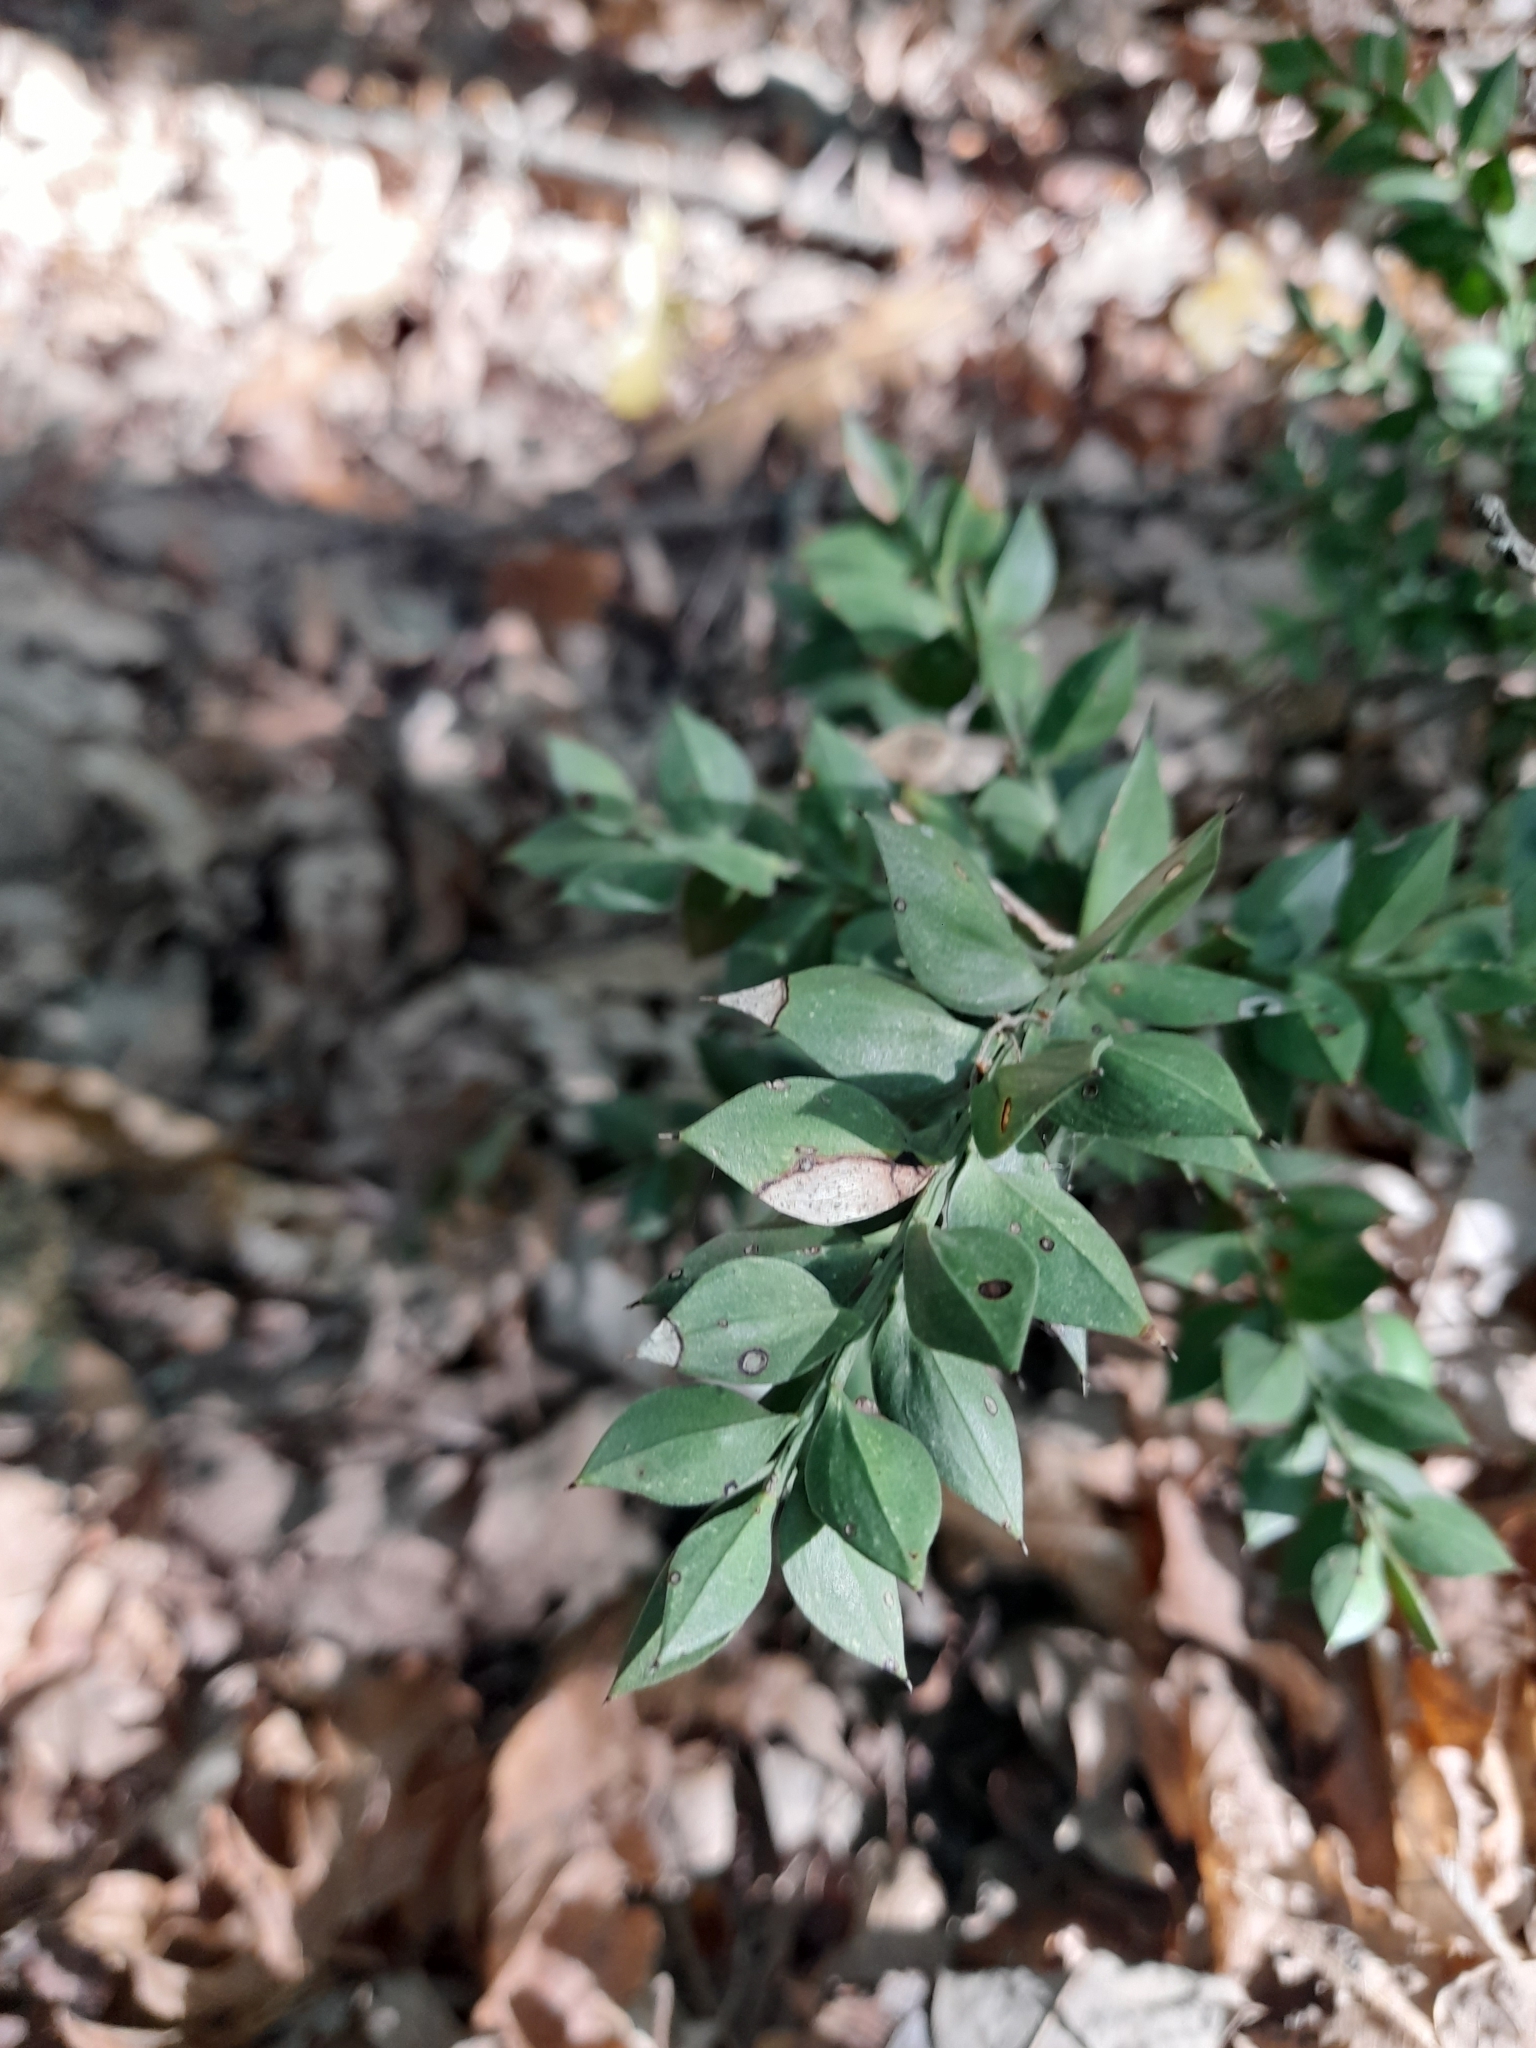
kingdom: Plantae
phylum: Tracheophyta
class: Liliopsida
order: Asparagales
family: Asparagaceae
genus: Ruscus
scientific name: Ruscus aculeatus
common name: Butcher's-broom
